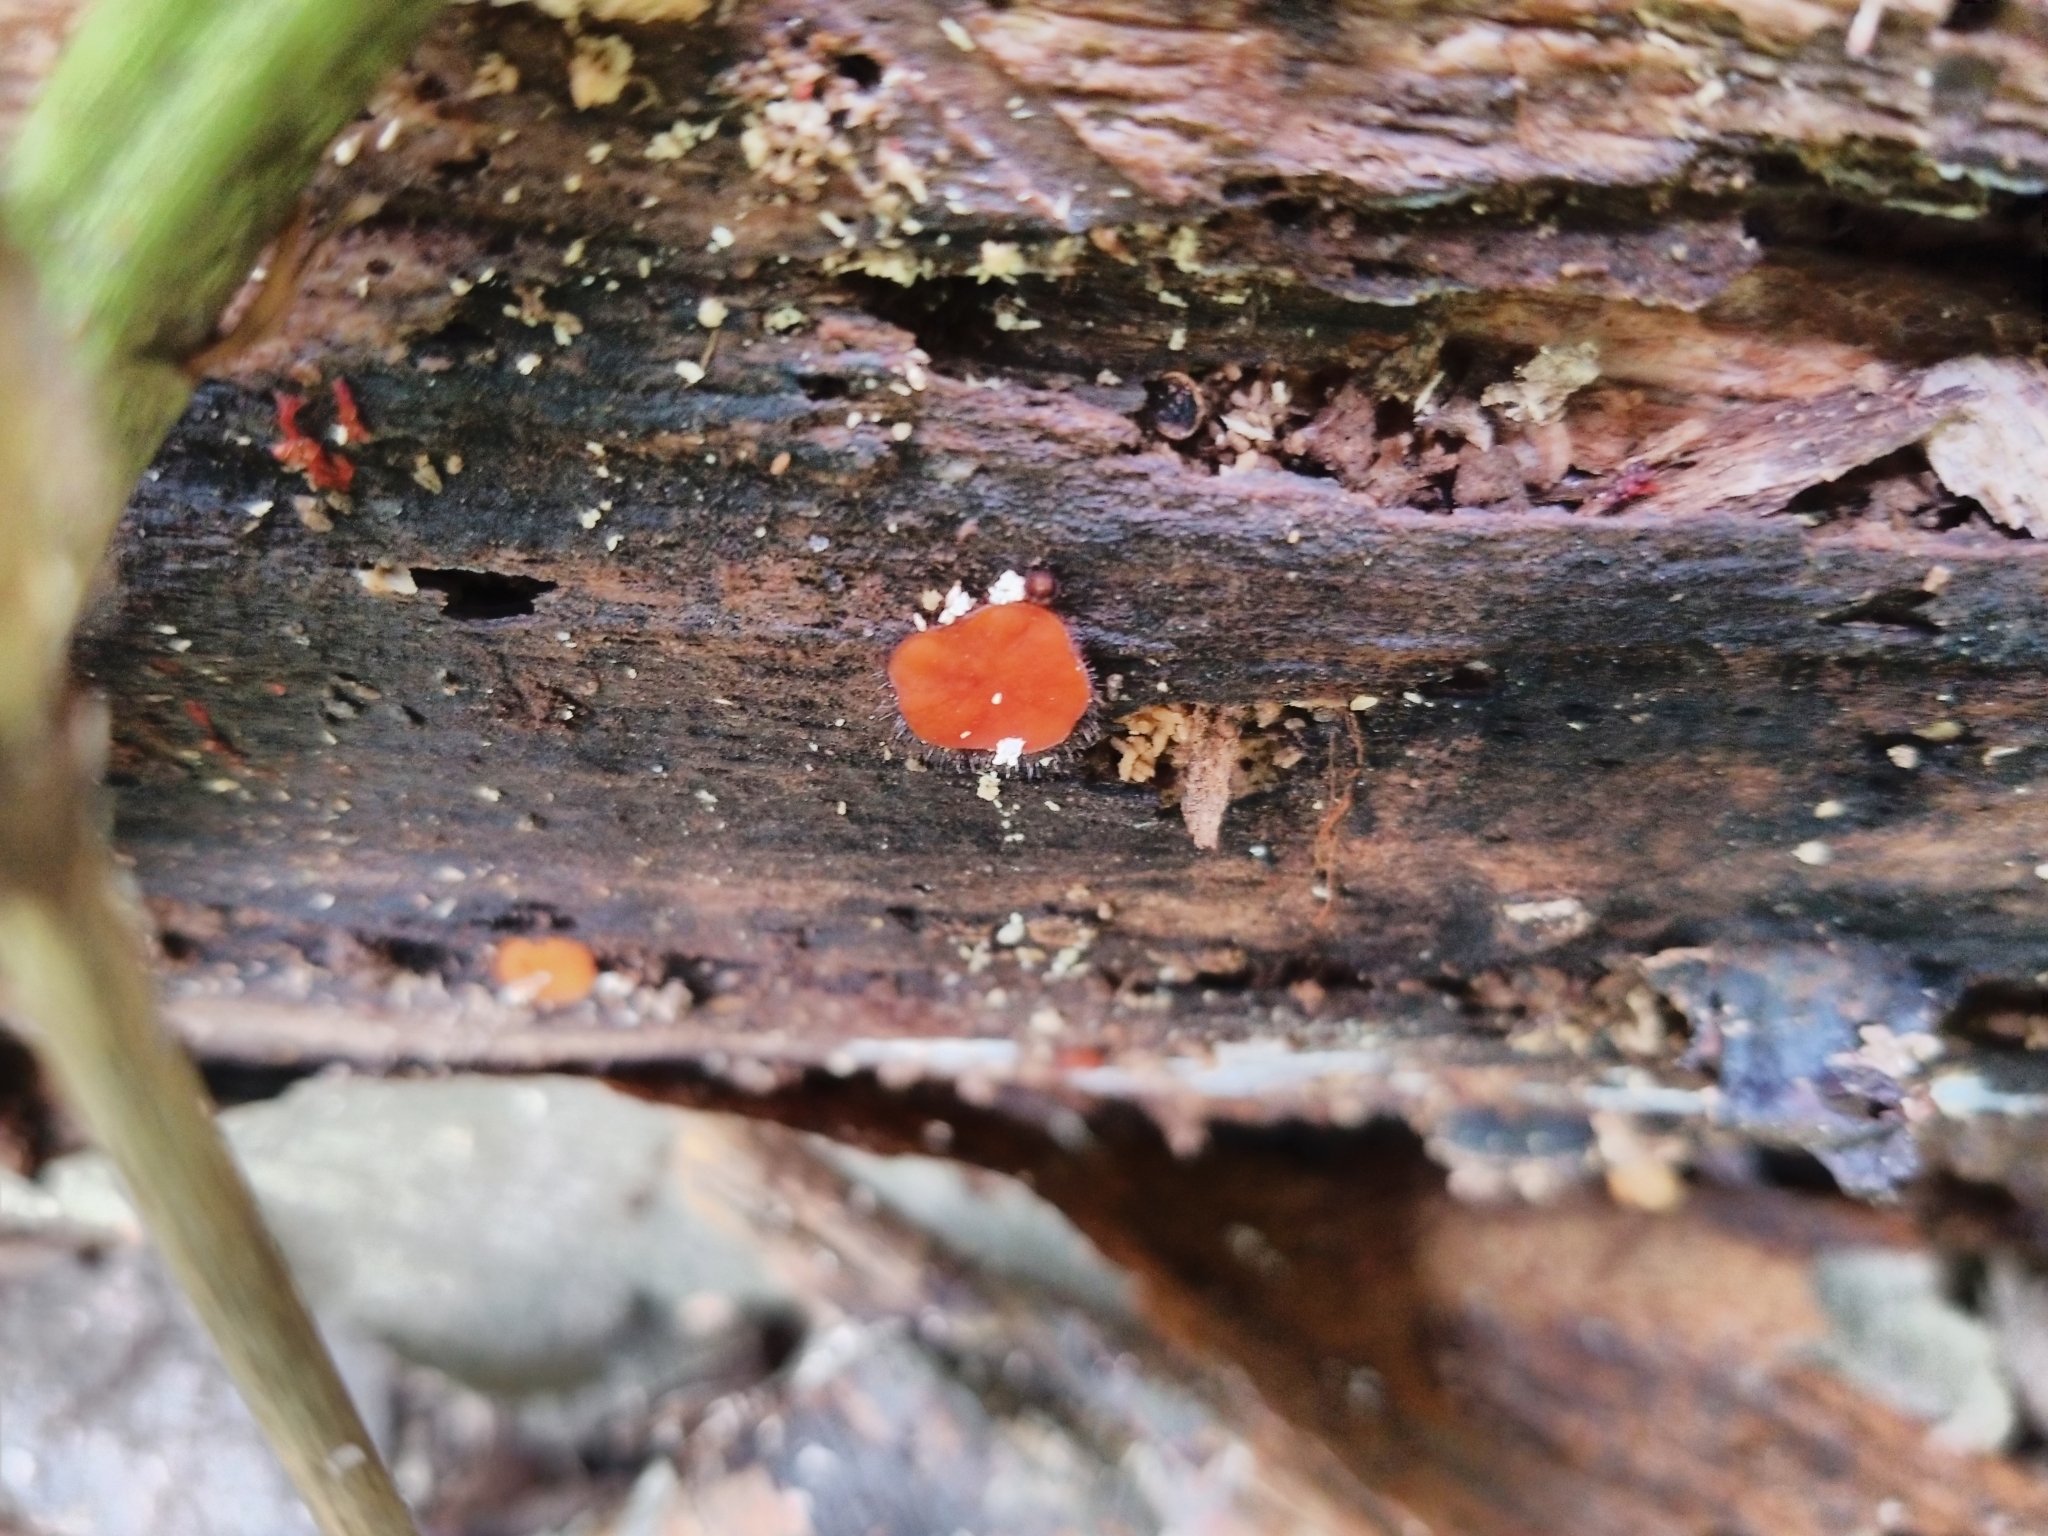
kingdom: Fungi
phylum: Ascomycota
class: Pezizomycetes
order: Pezizales
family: Pyronemataceae
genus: Scutellinia
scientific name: Scutellinia scutellata
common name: Common eyelash
